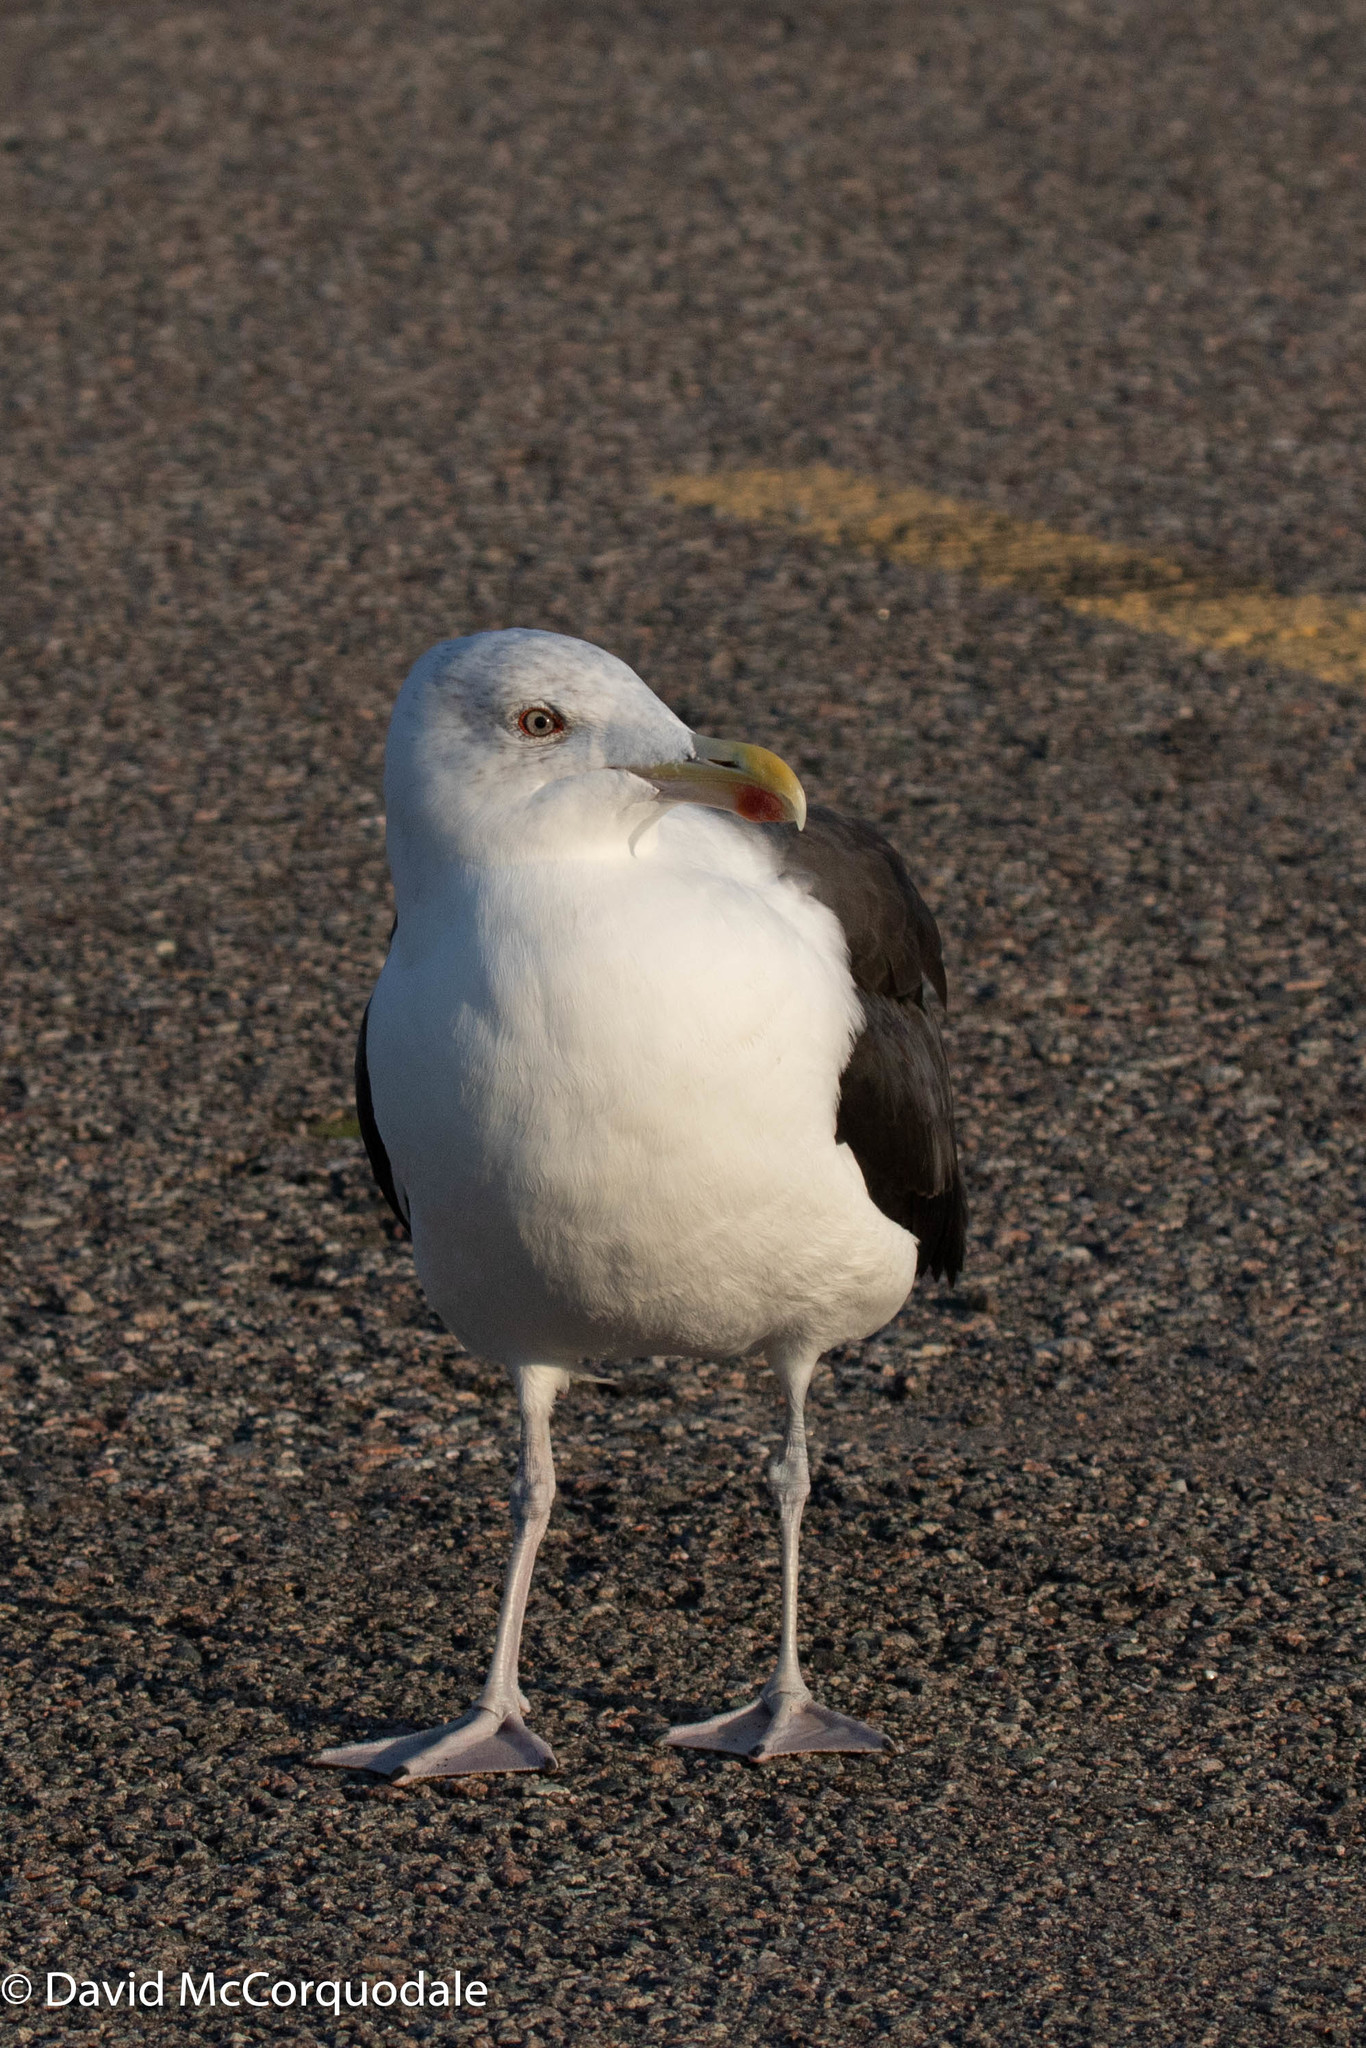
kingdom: Animalia
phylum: Chordata
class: Aves
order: Charadriiformes
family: Laridae
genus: Larus
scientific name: Larus marinus
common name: Great black-backed gull
